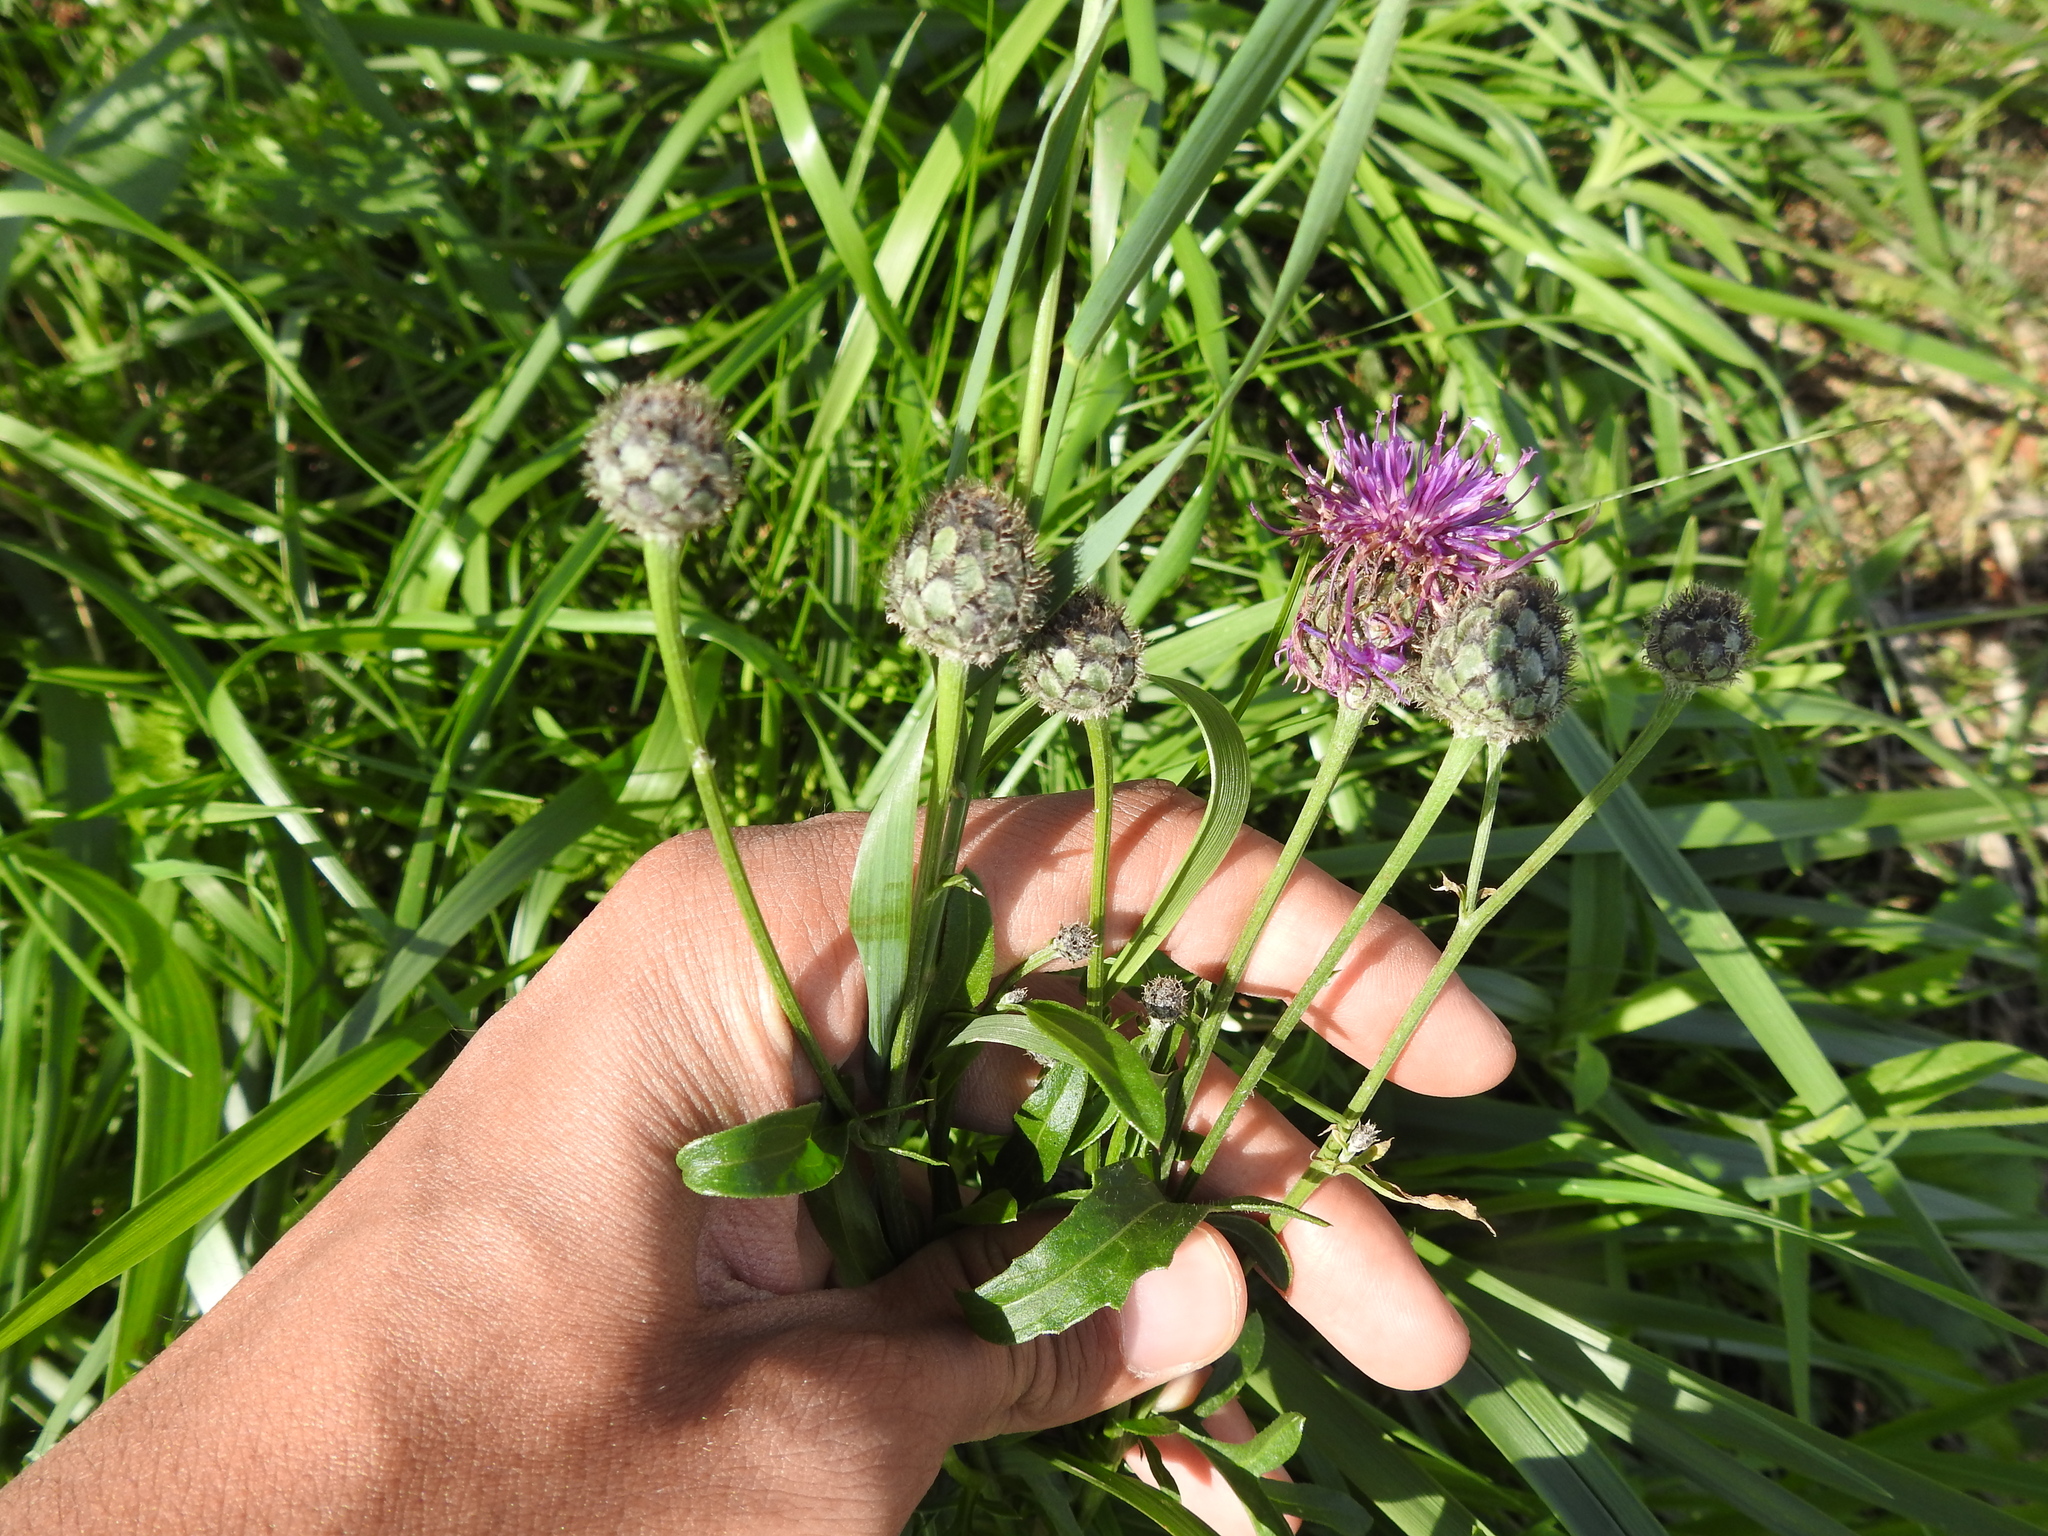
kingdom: Plantae
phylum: Tracheophyta
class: Magnoliopsida
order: Asterales
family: Asteraceae
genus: Centaurea
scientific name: Centaurea scabiosa
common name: Greater knapweed
